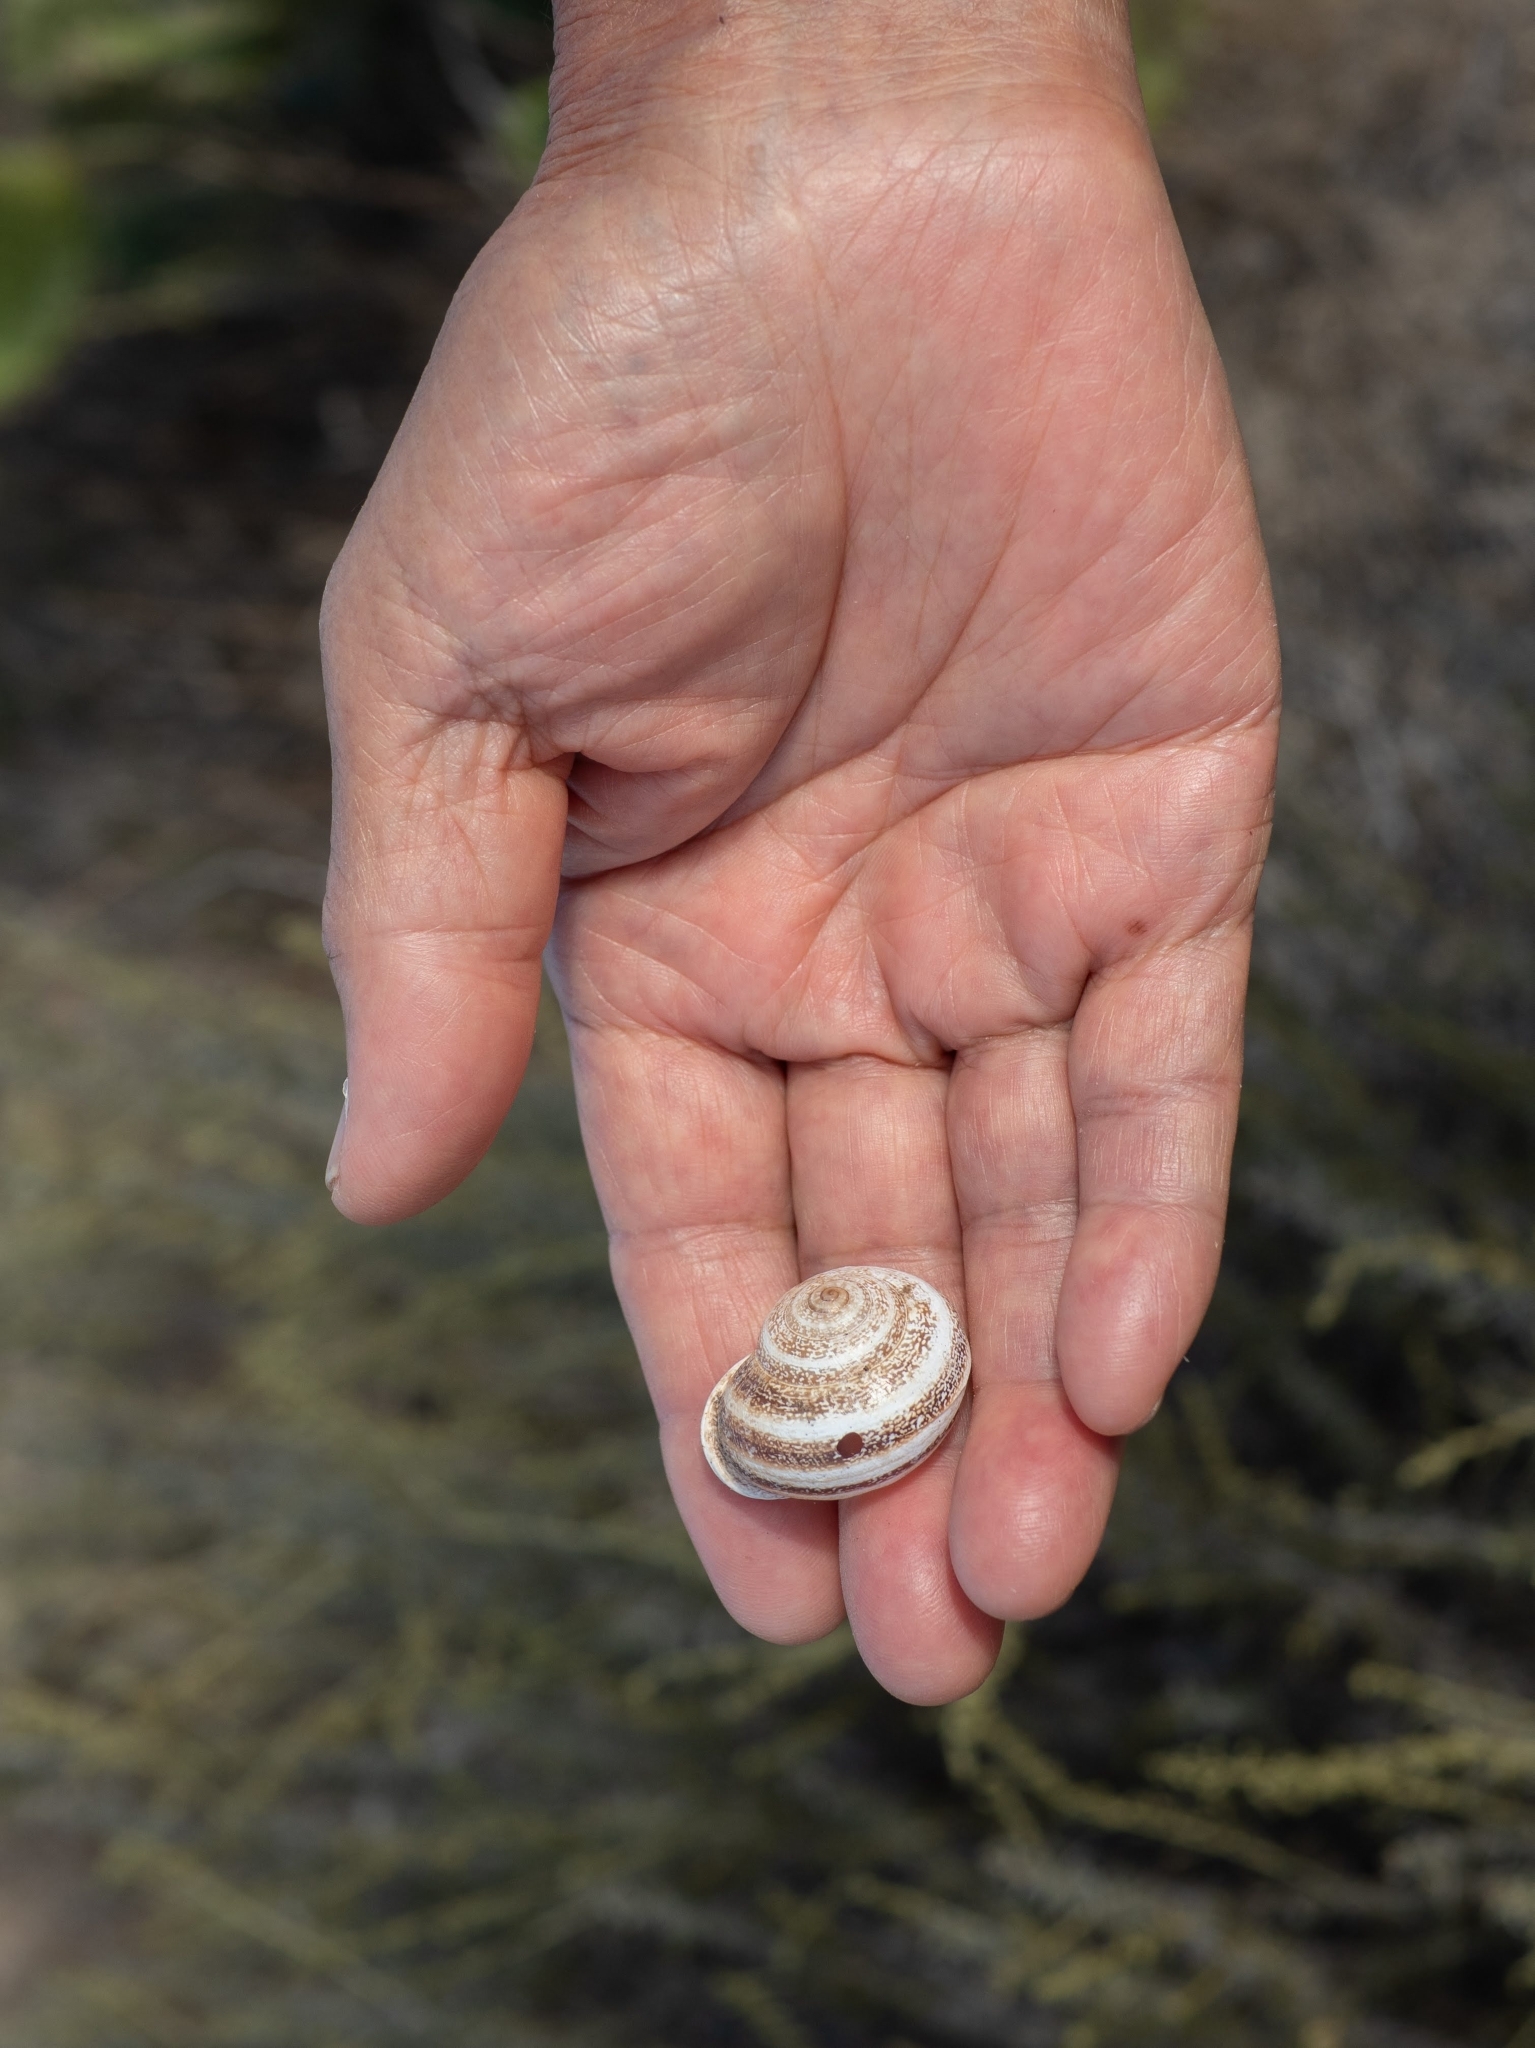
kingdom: Animalia
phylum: Mollusca
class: Gastropoda
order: Stylommatophora
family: Helicidae
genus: Otala
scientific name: Otala lactea
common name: Milk snail
